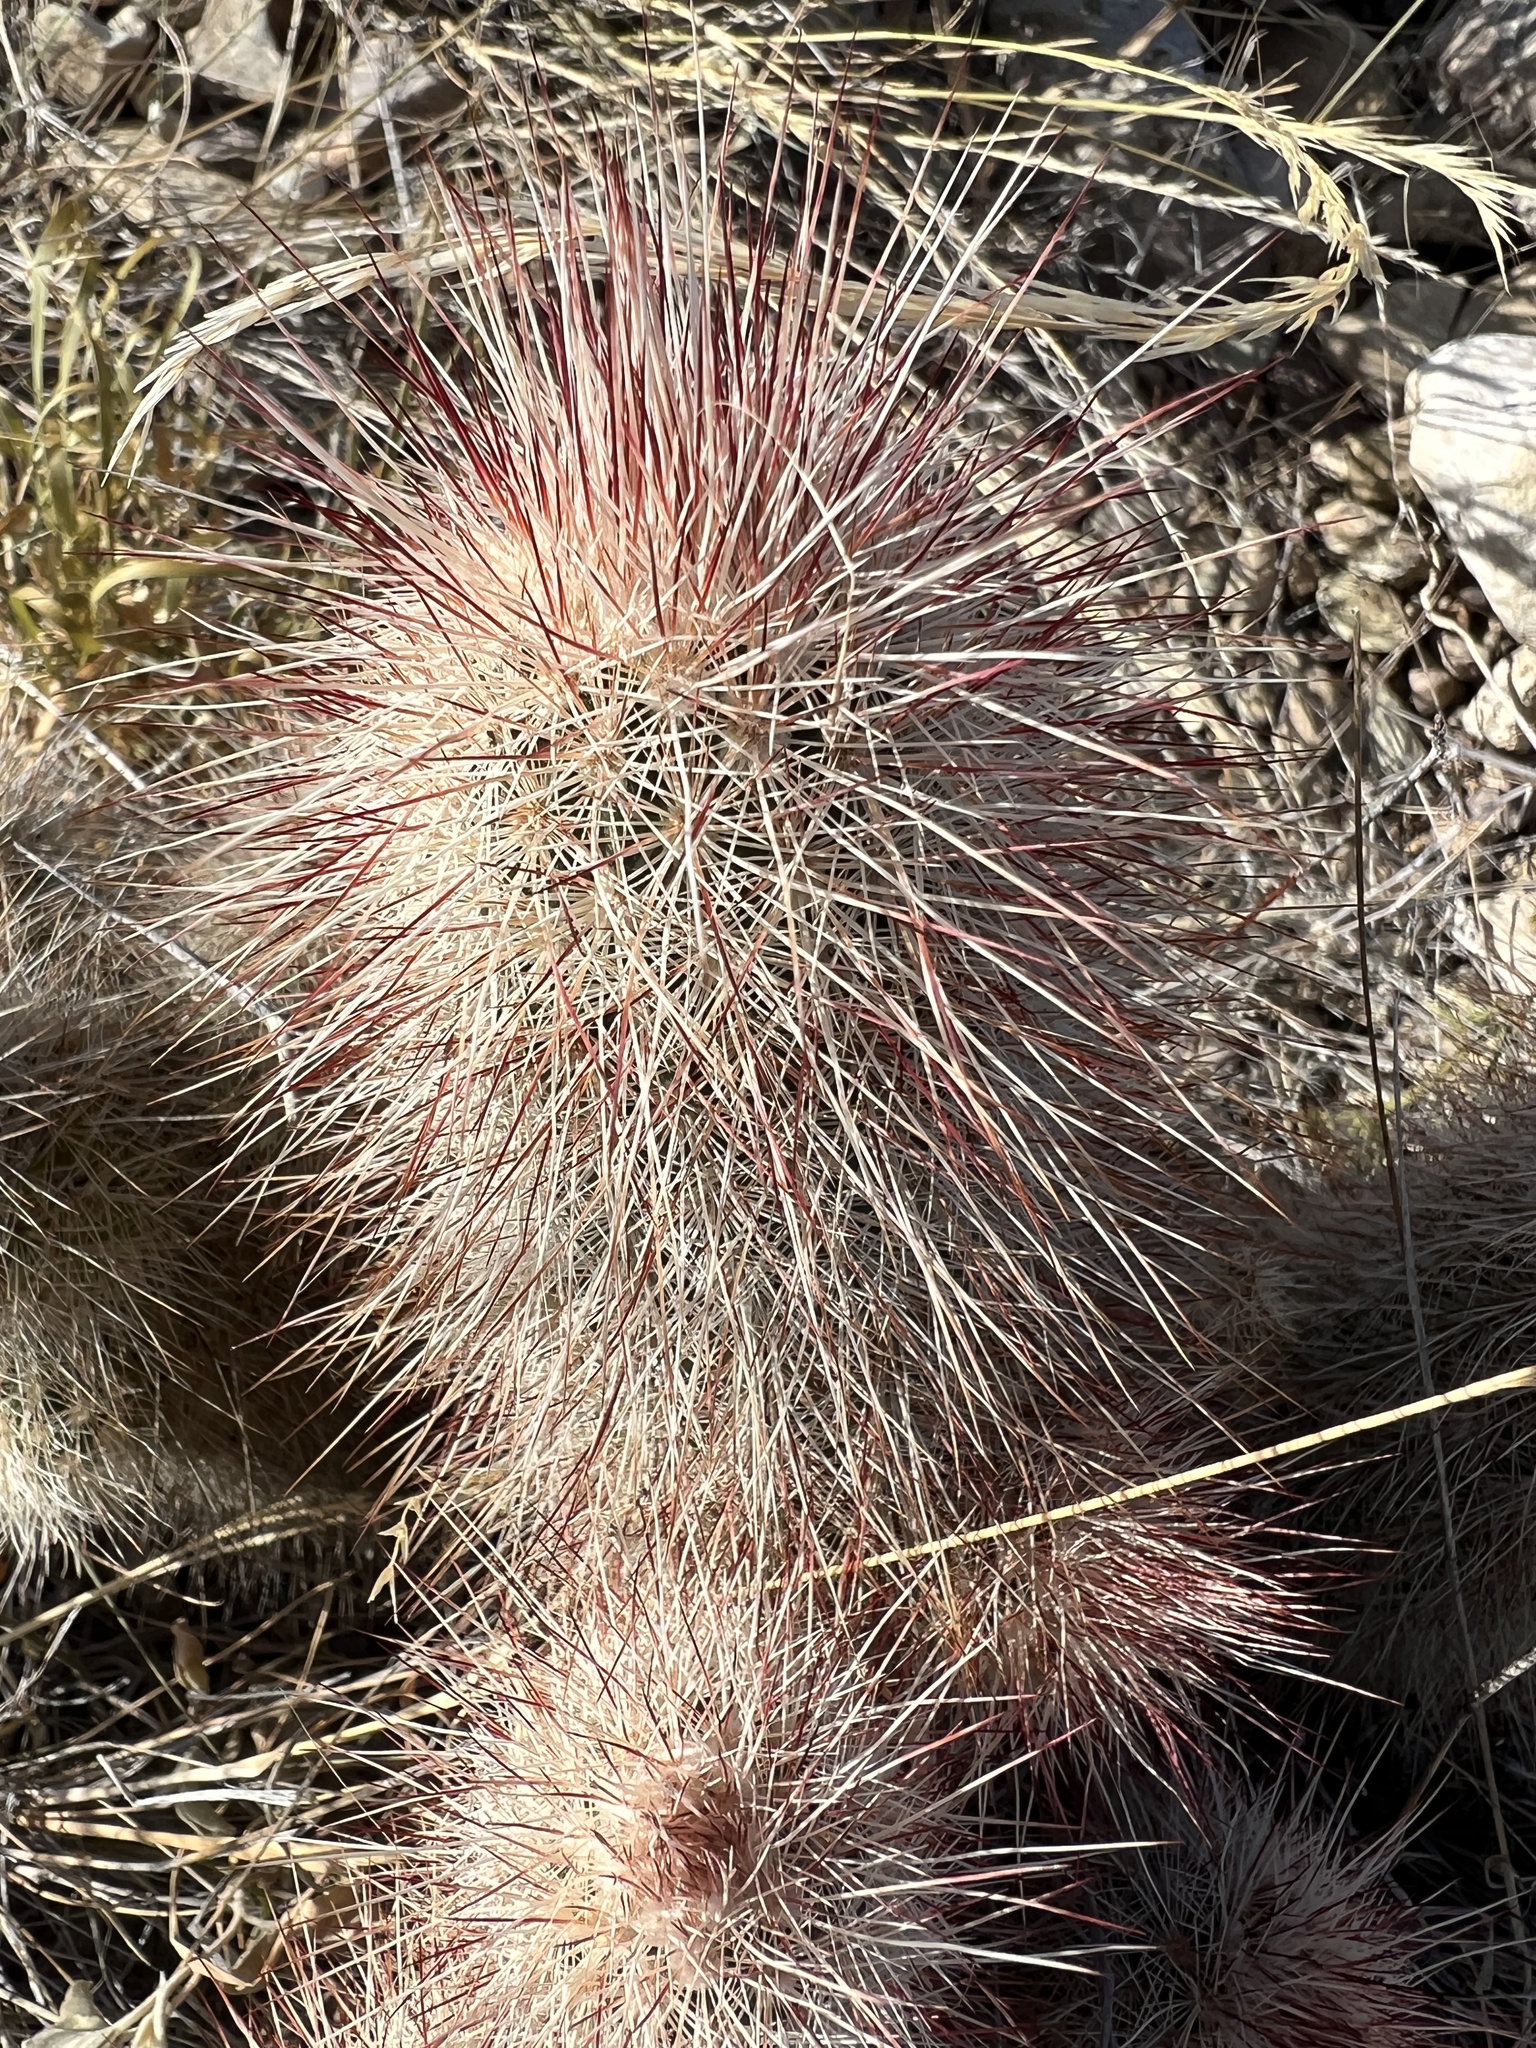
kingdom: Plantae
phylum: Tracheophyta
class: Magnoliopsida
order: Caryophyllales
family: Cactaceae
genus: Echinocereus
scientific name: Echinocereus russanthus
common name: Brownspine hedgehog cactus
